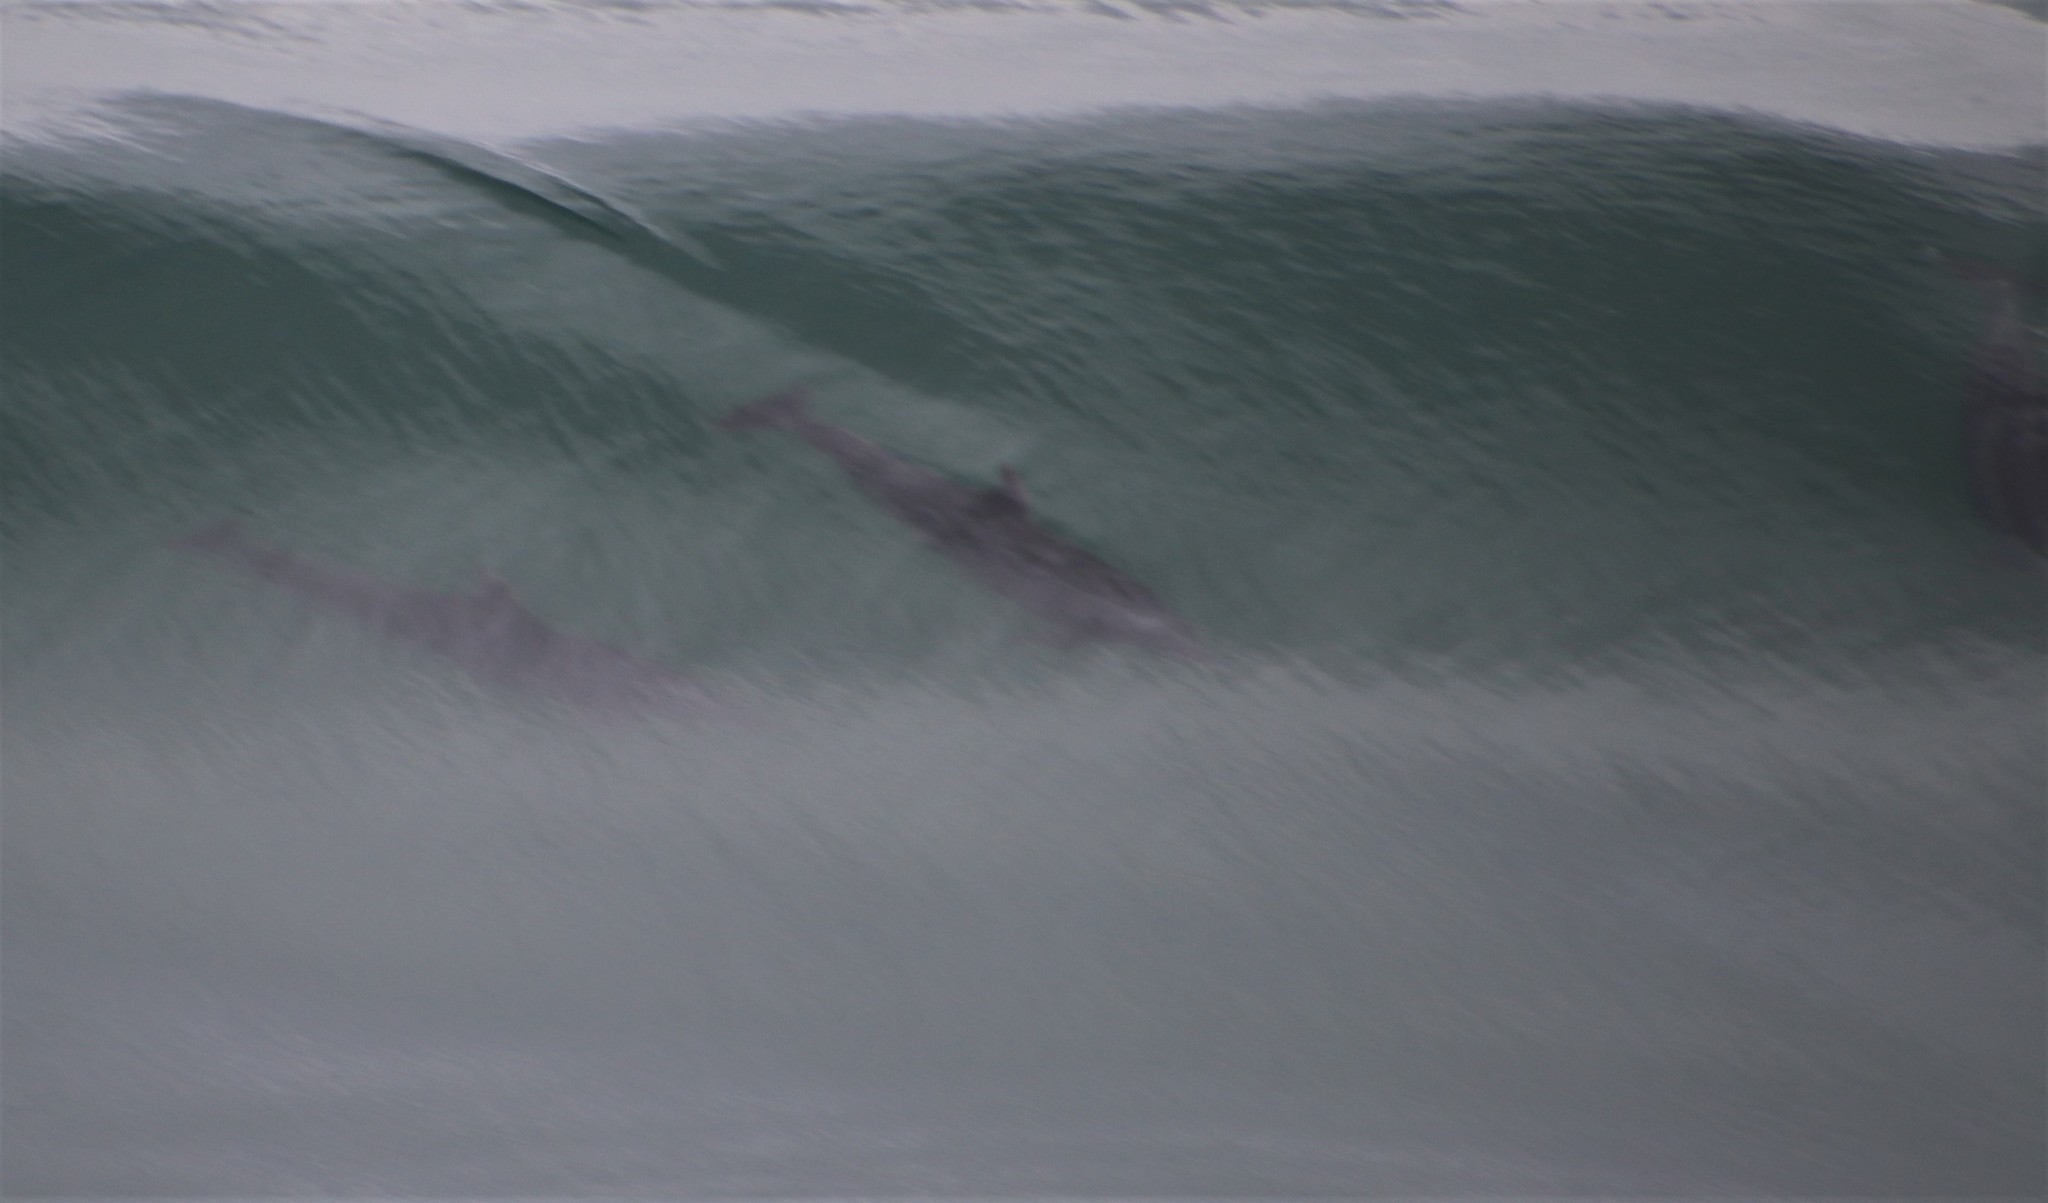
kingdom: Animalia
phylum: Chordata
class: Mammalia
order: Cetacea
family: Delphinidae
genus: Tursiops
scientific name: Tursiops truncatus
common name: Bottlenose dolphin
